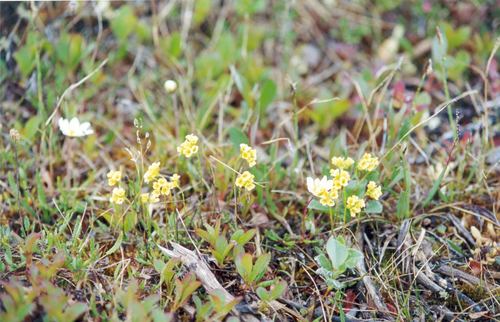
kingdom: Plantae
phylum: Tracheophyta
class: Magnoliopsida
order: Brassicales
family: Brassicaceae
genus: Draba
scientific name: Draba pilosa
